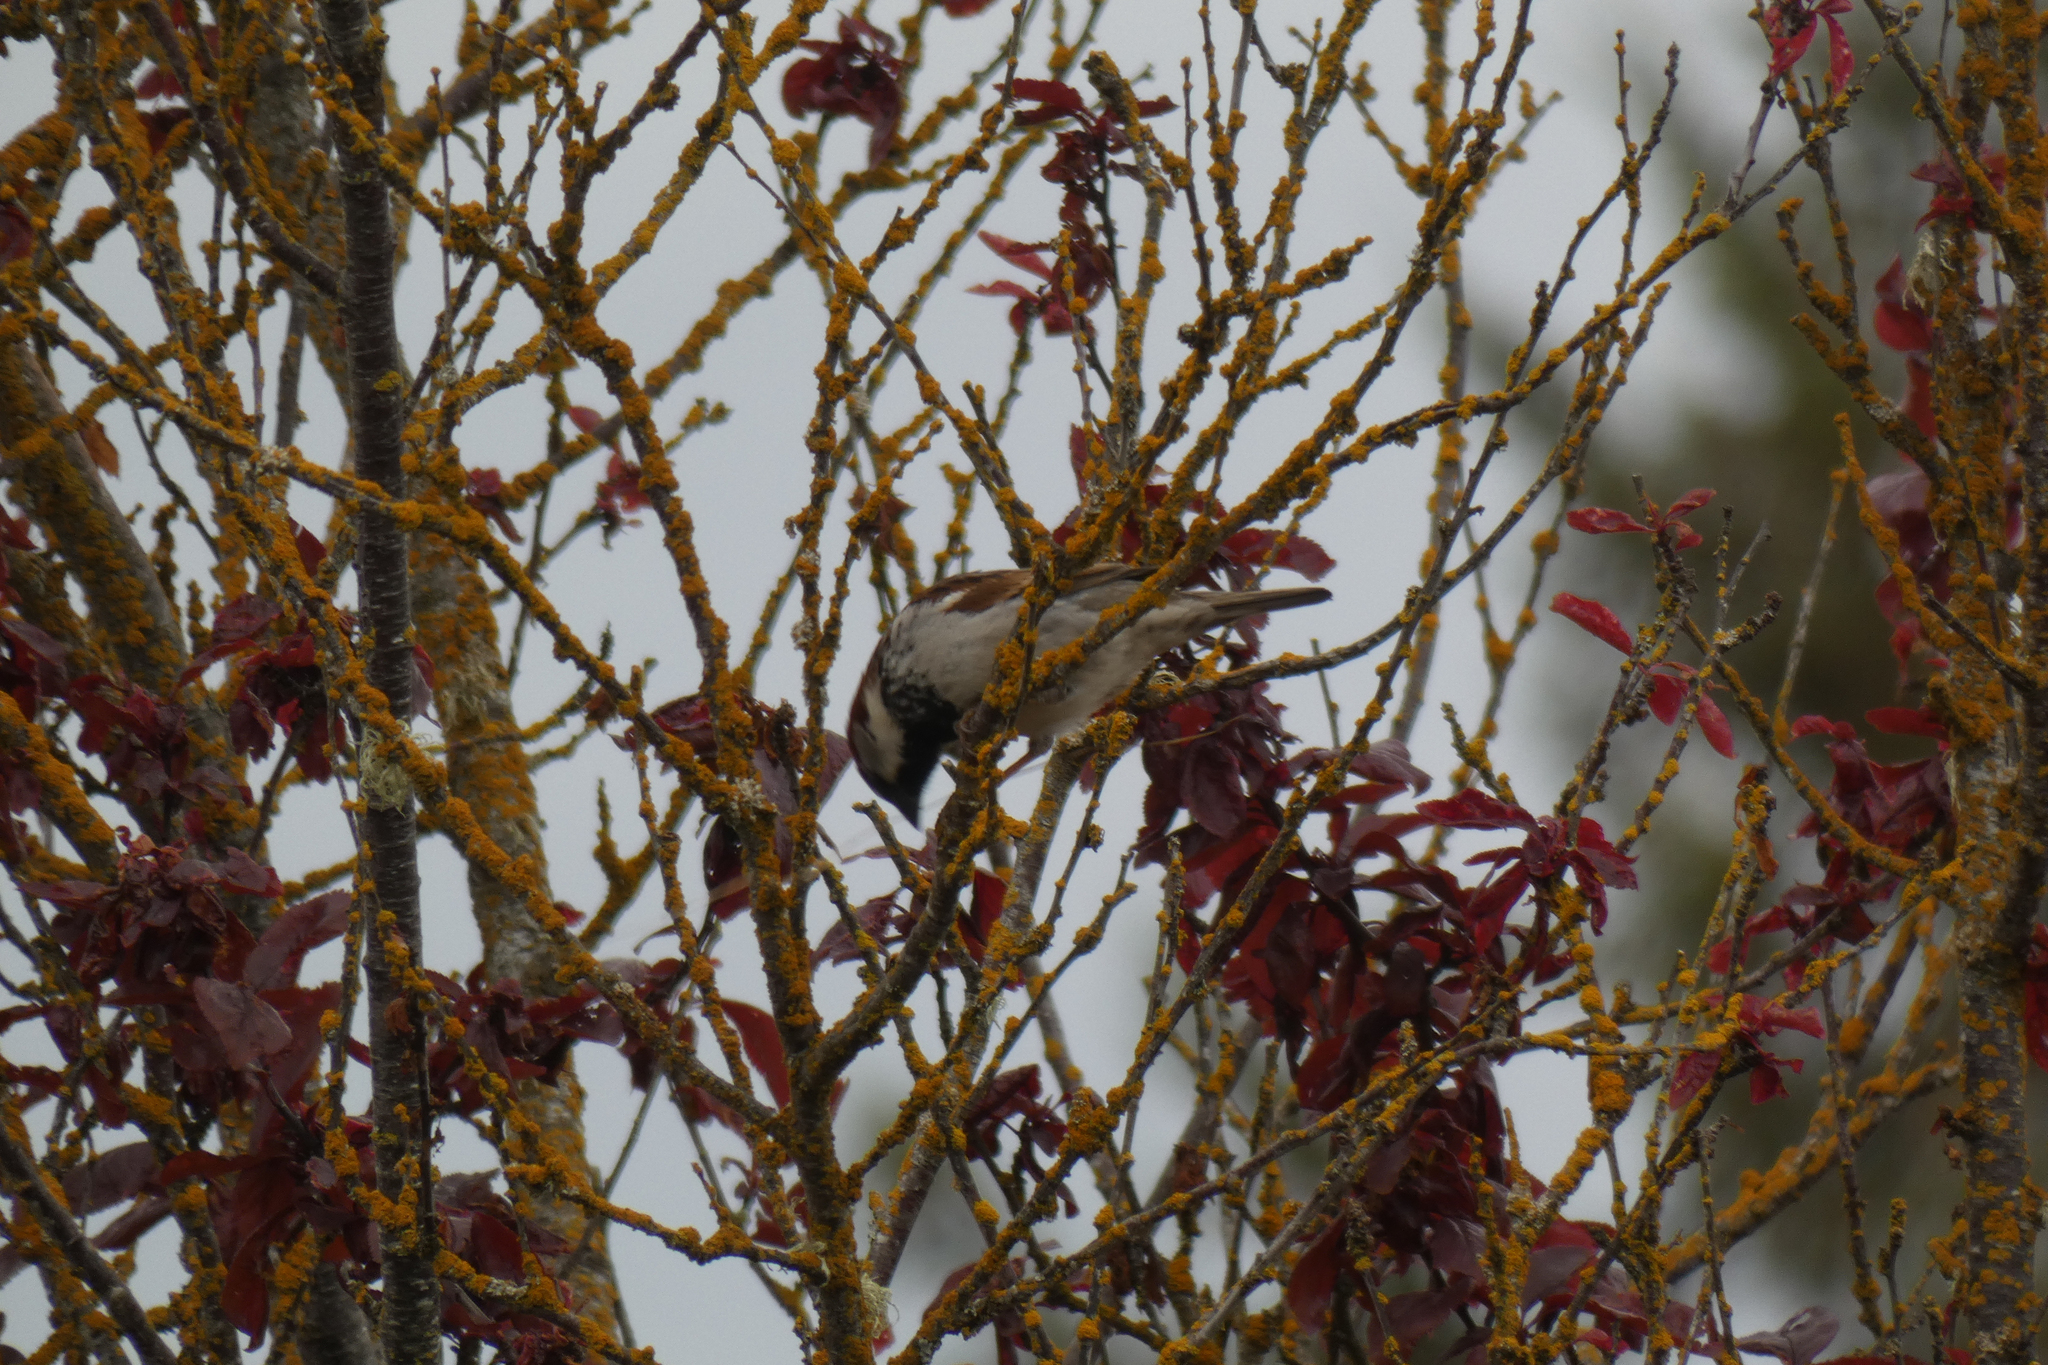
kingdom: Animalia
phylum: Chordata
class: Aves
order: Passeriformes
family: Passeridae
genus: Passer
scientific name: Passer domesticus
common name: House sparrow
